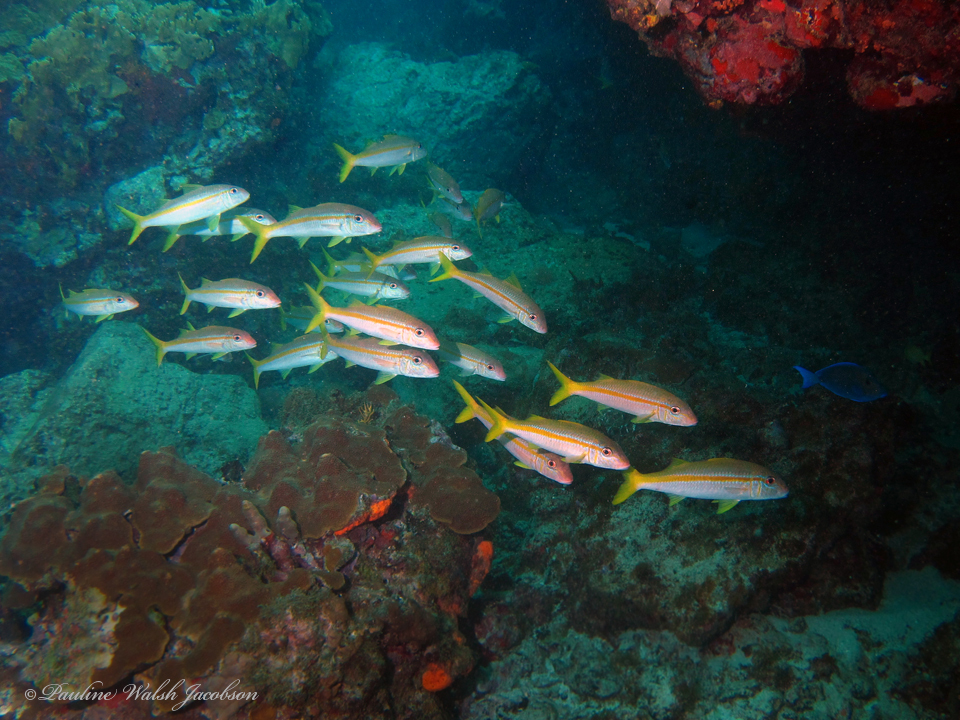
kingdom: Animalia
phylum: Chordata
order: Perciformes
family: Mullidae
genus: Mulloidichthys
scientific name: Mulloidichthys martinicus
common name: Yellow goatfish
